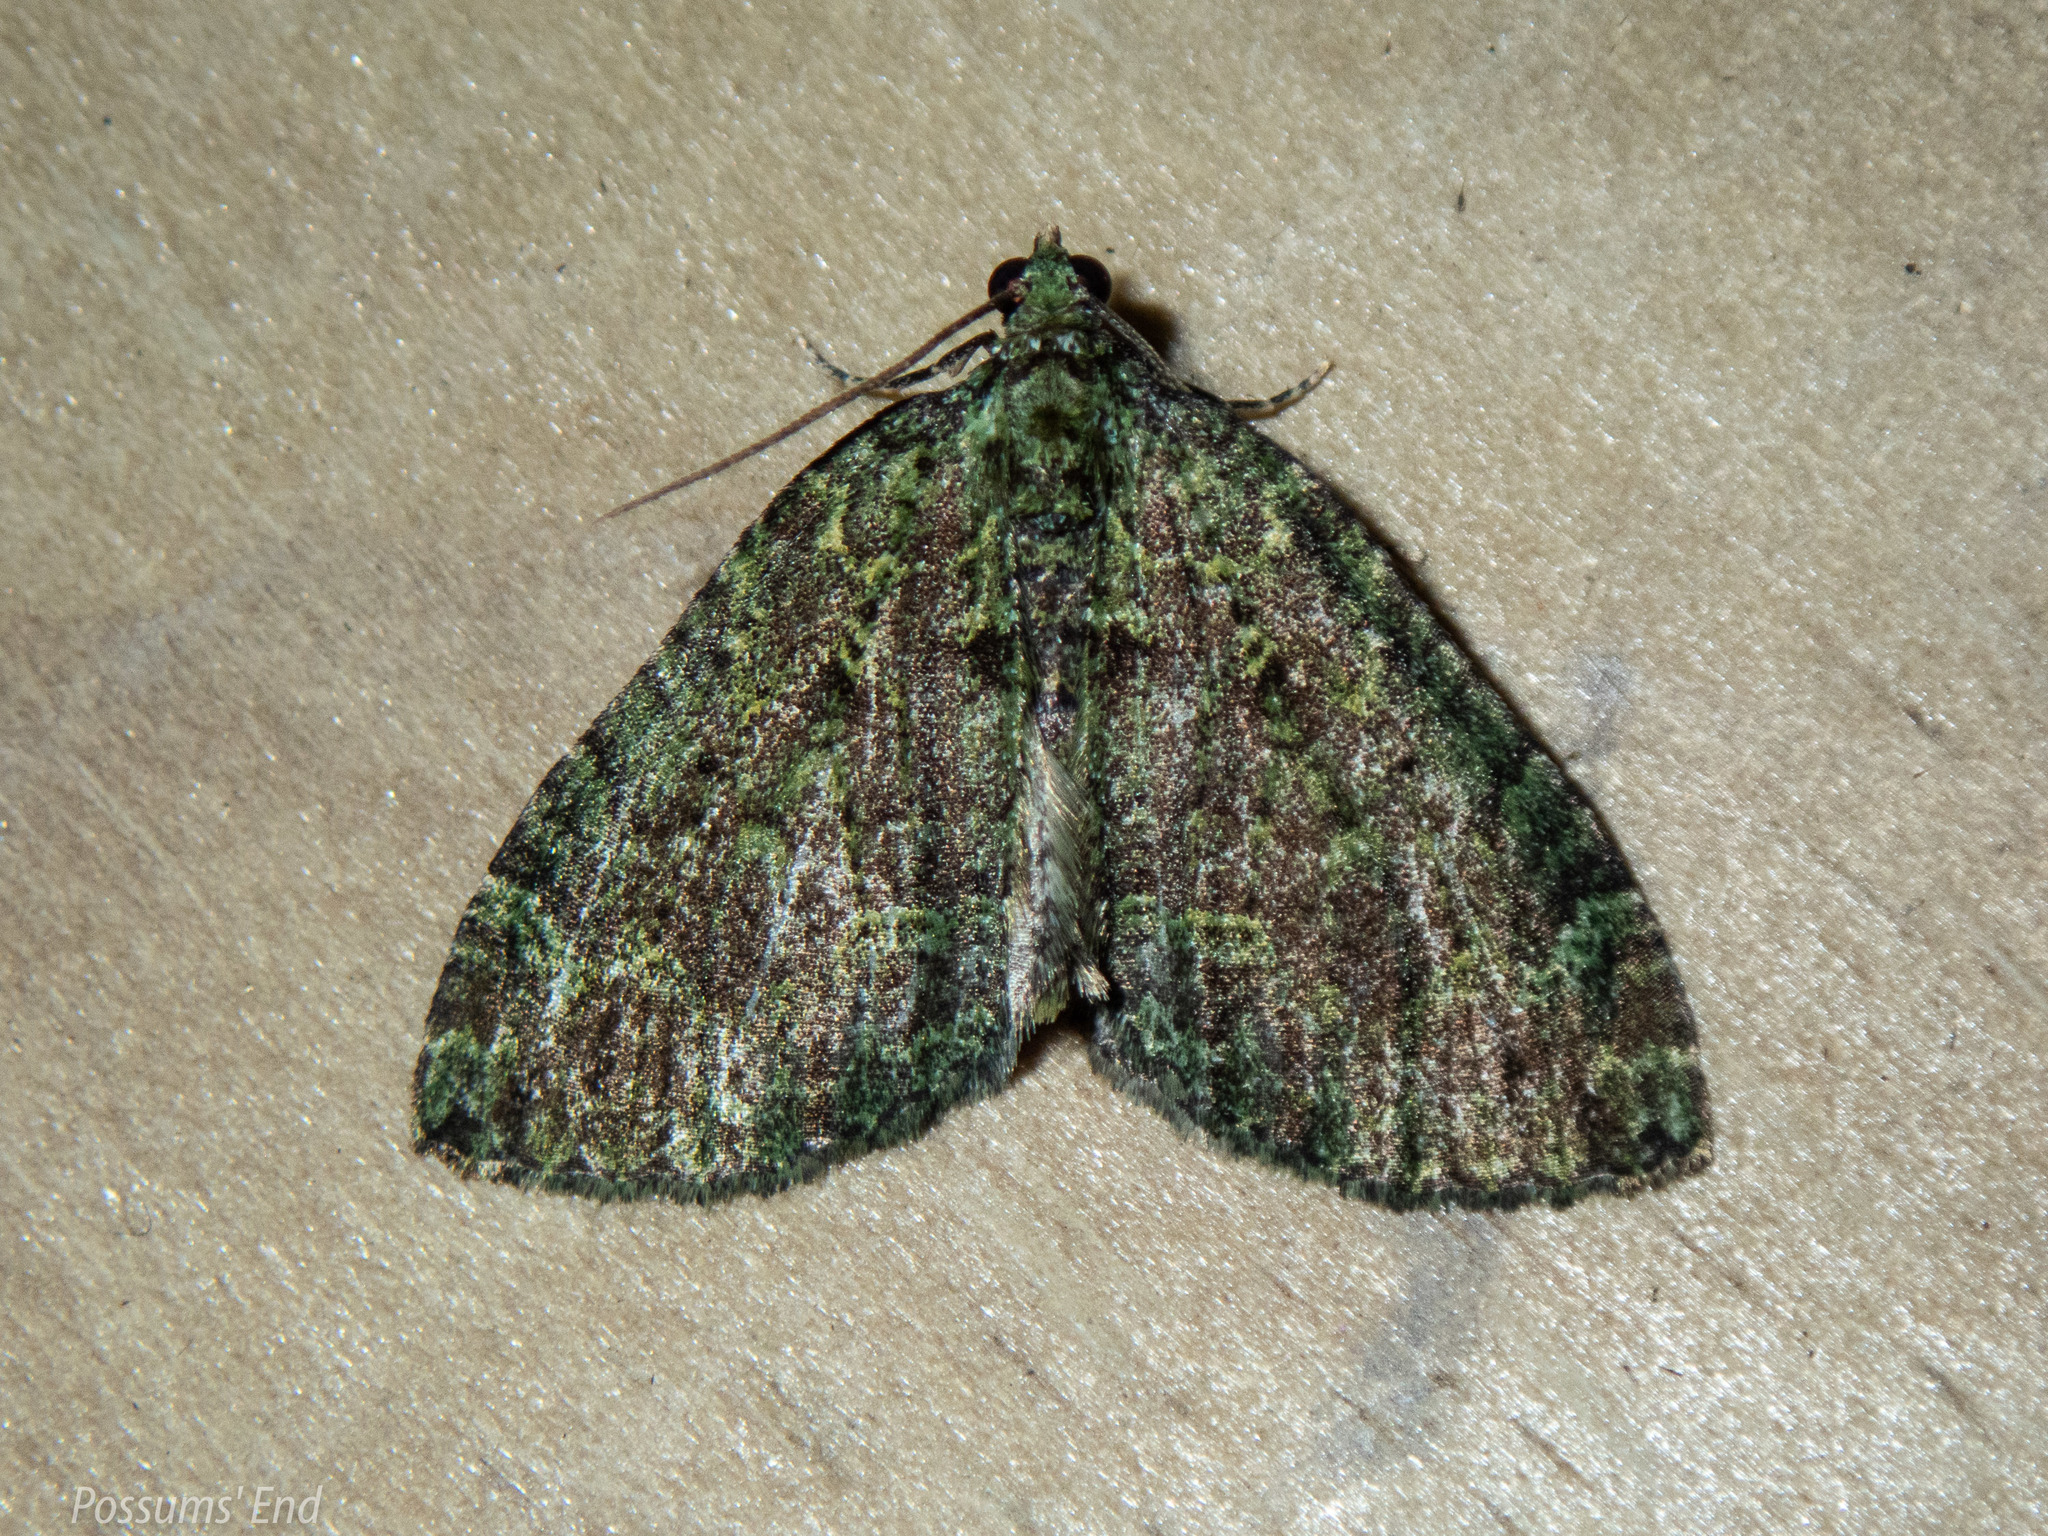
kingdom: Animalia
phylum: Arthropoda
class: Insecta
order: Lepidoptera
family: Geometridae
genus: Austrocidaria
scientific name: Austrocidaria callichlora
